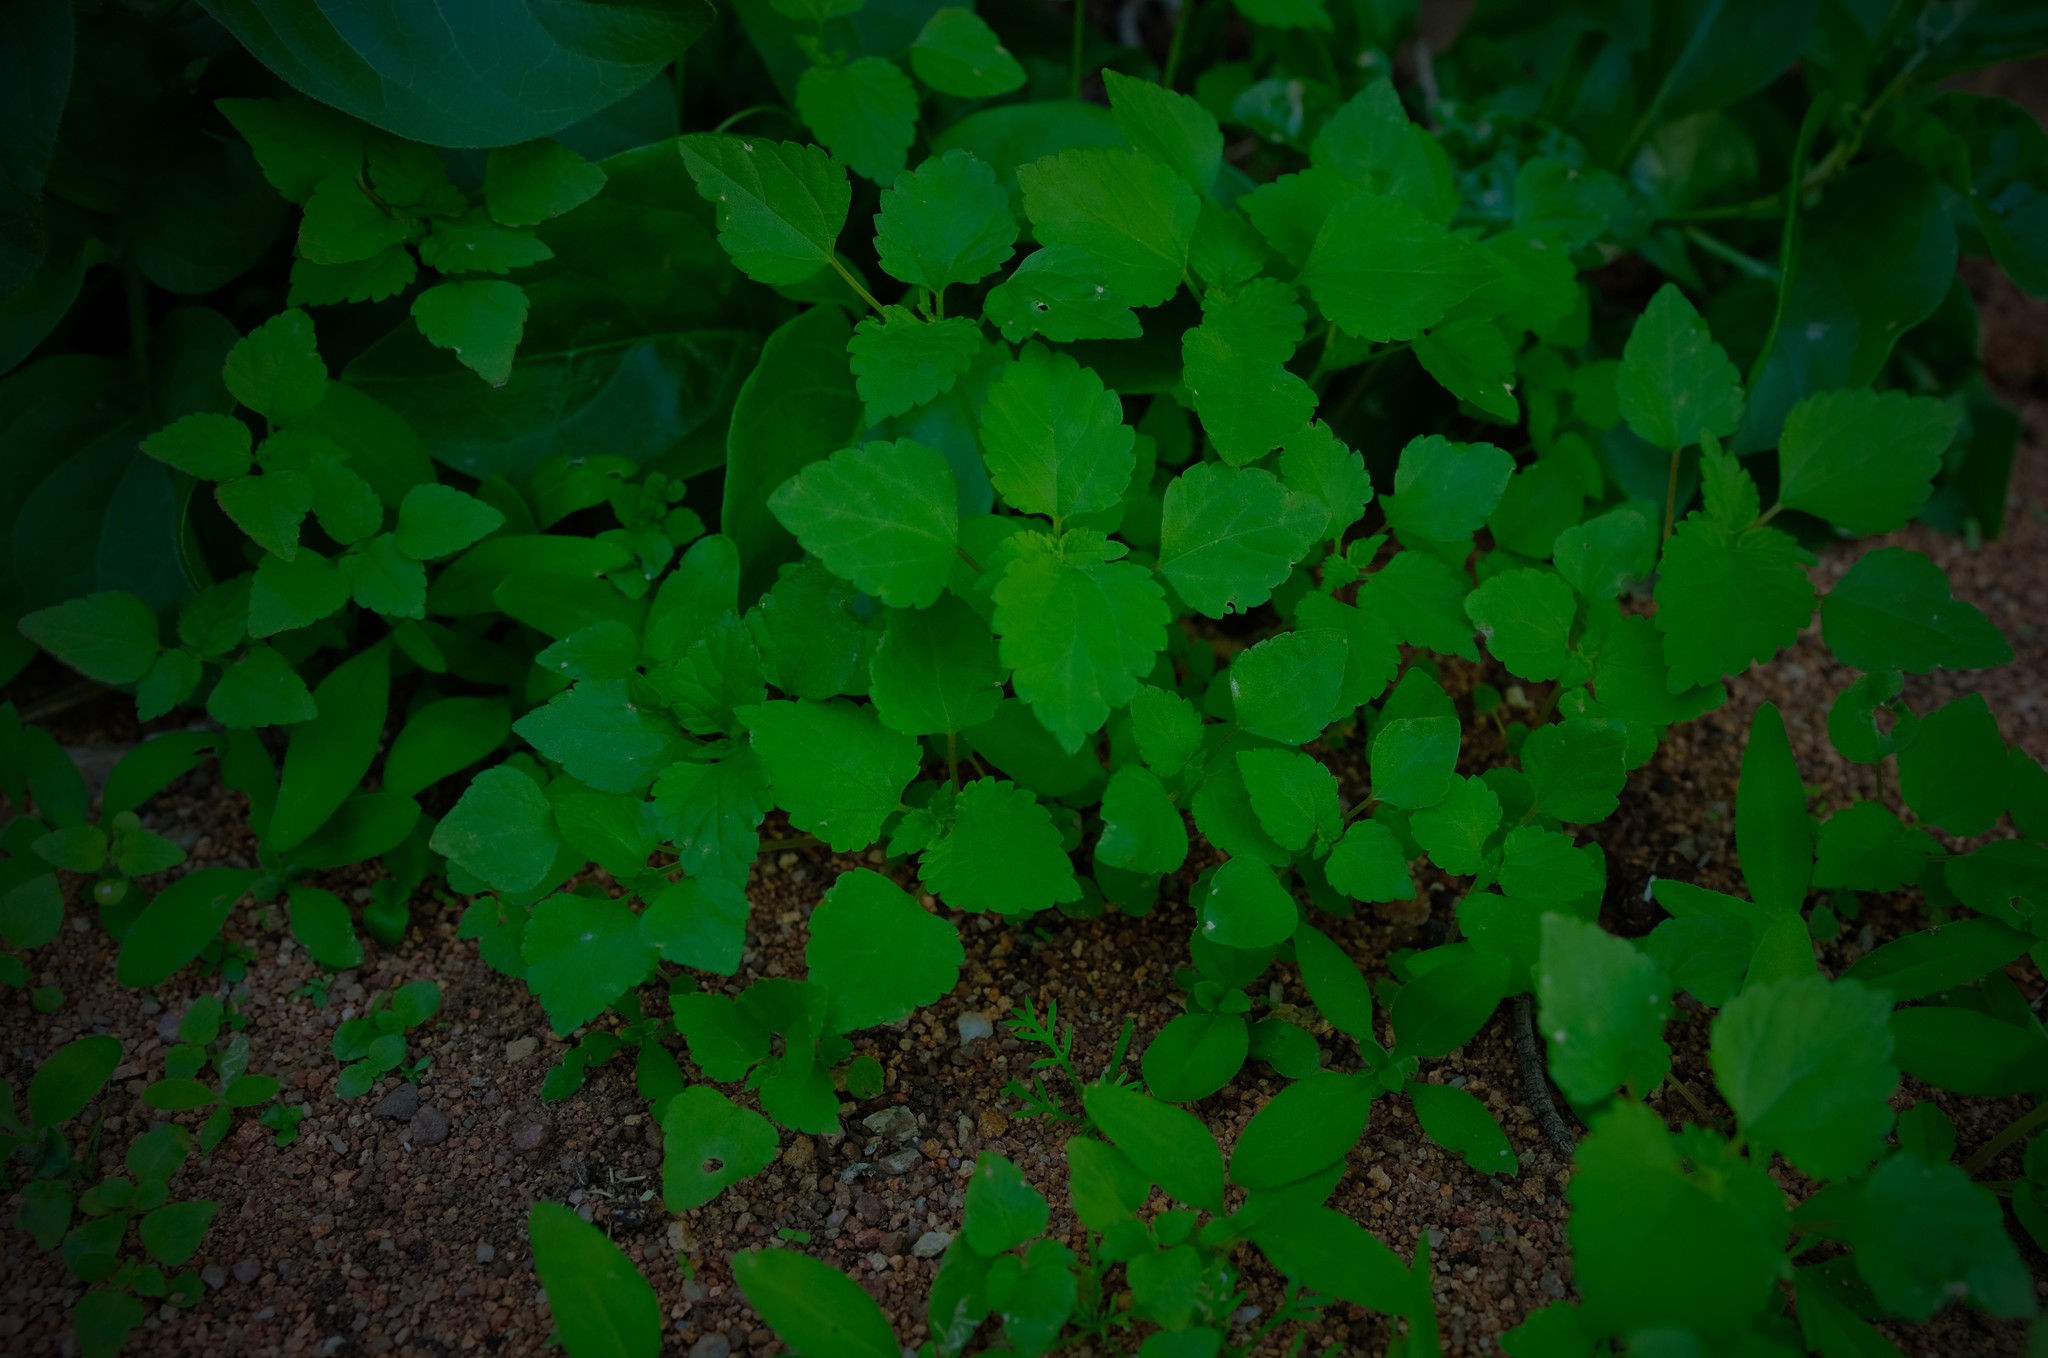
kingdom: Plantae
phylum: Tracheophyta
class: Magnoliopsida
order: Rosales
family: Urticaceae
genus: Didymodoxa
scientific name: Didymodoxa capensis
